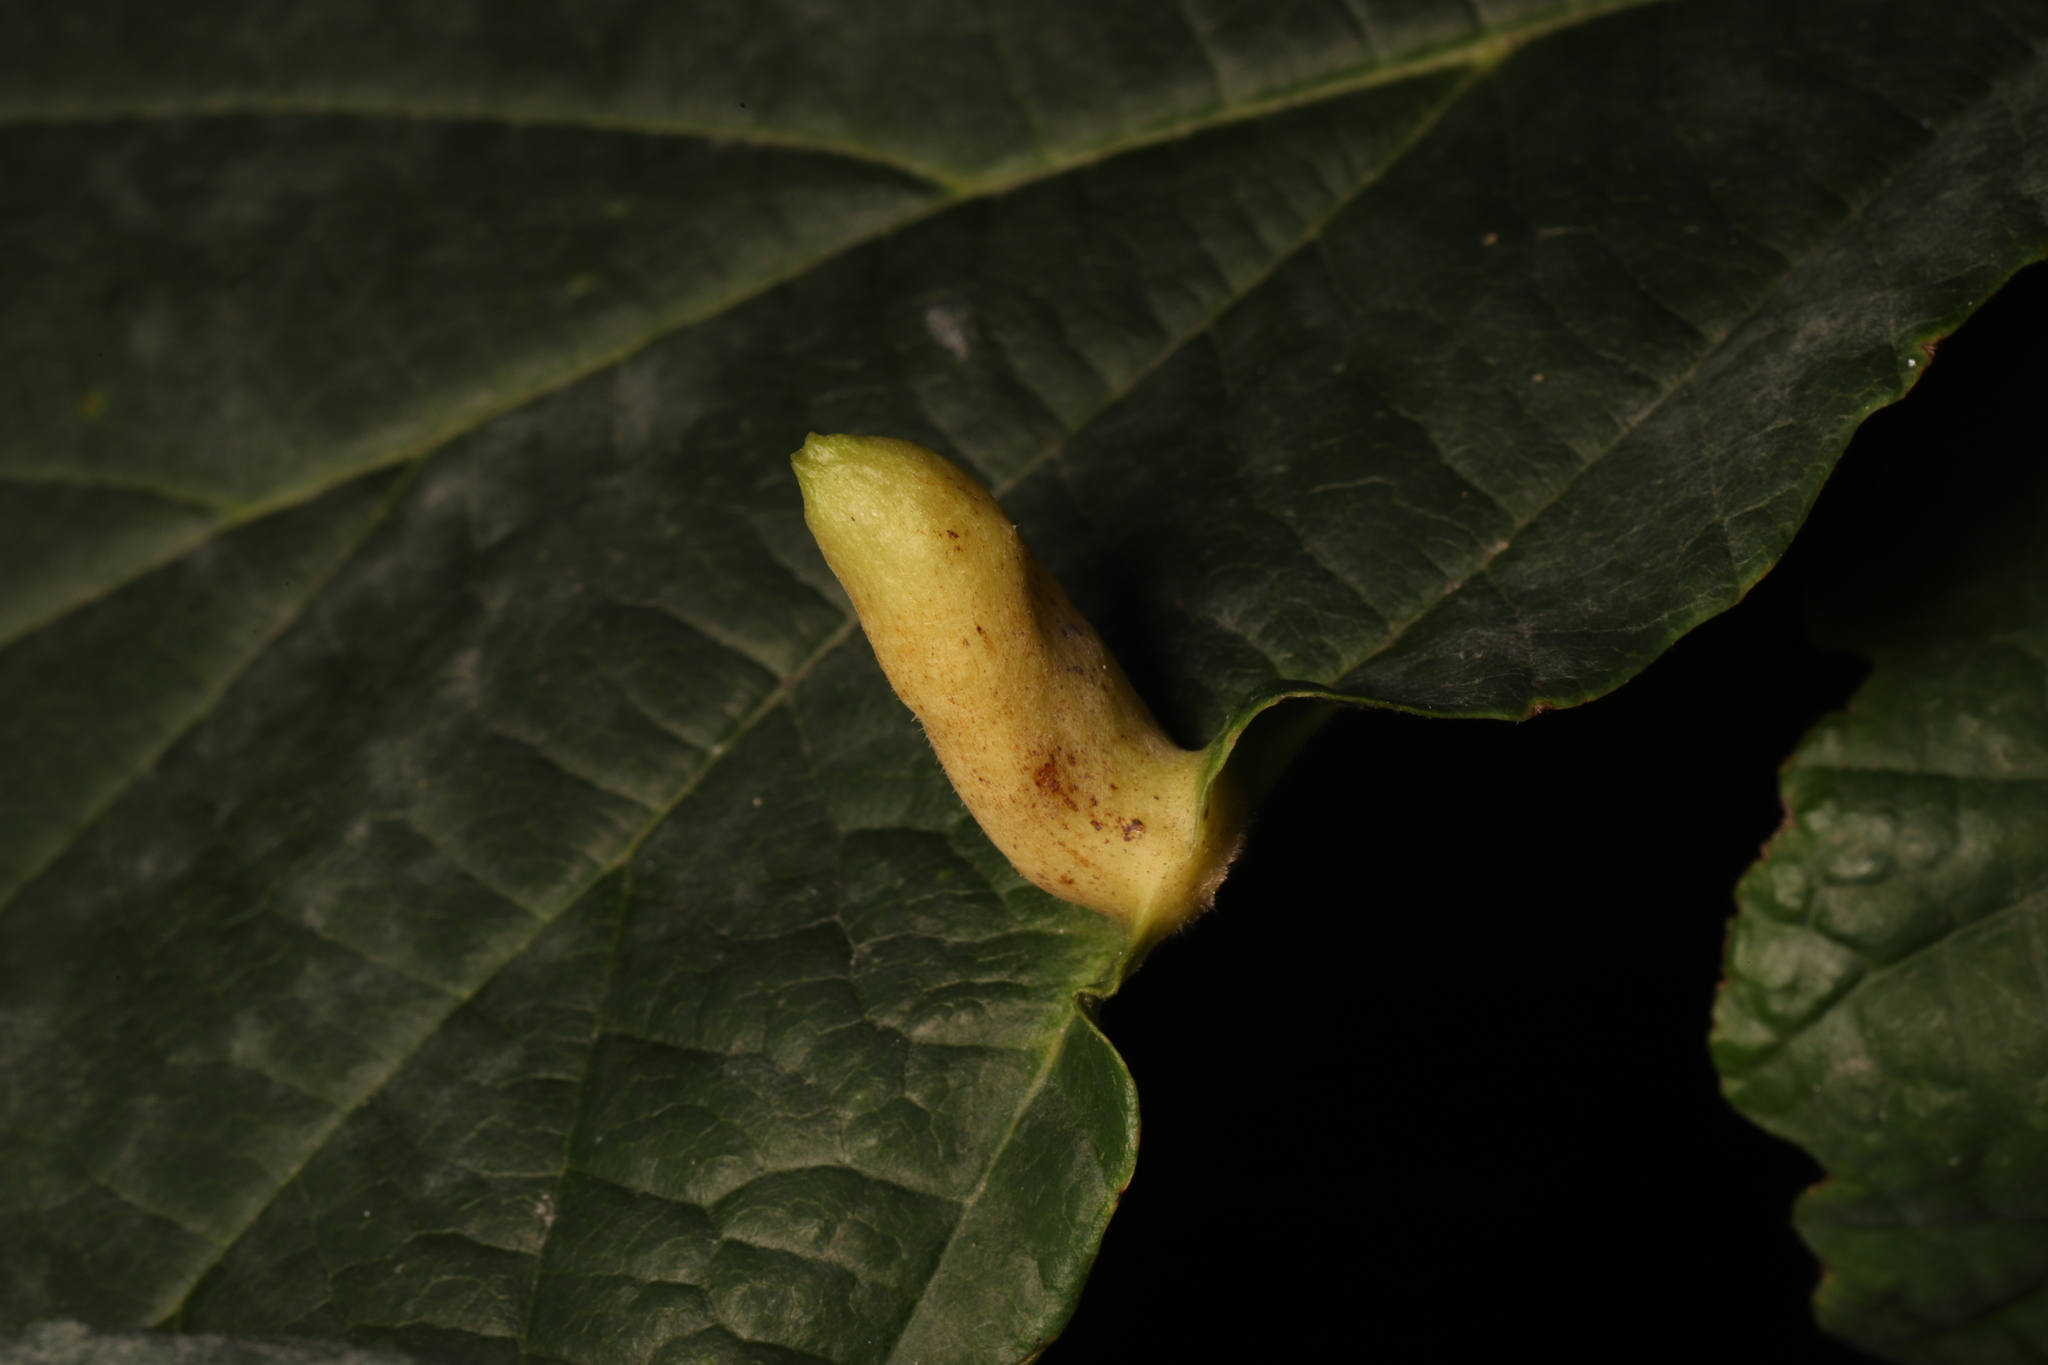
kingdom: Animalia
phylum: Arthropoda
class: Insecta
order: Hemiptera
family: Aphididae
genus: Hormaphis
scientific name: Hormaphis hamamelidis
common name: Witch-hazel cone gall aphid
